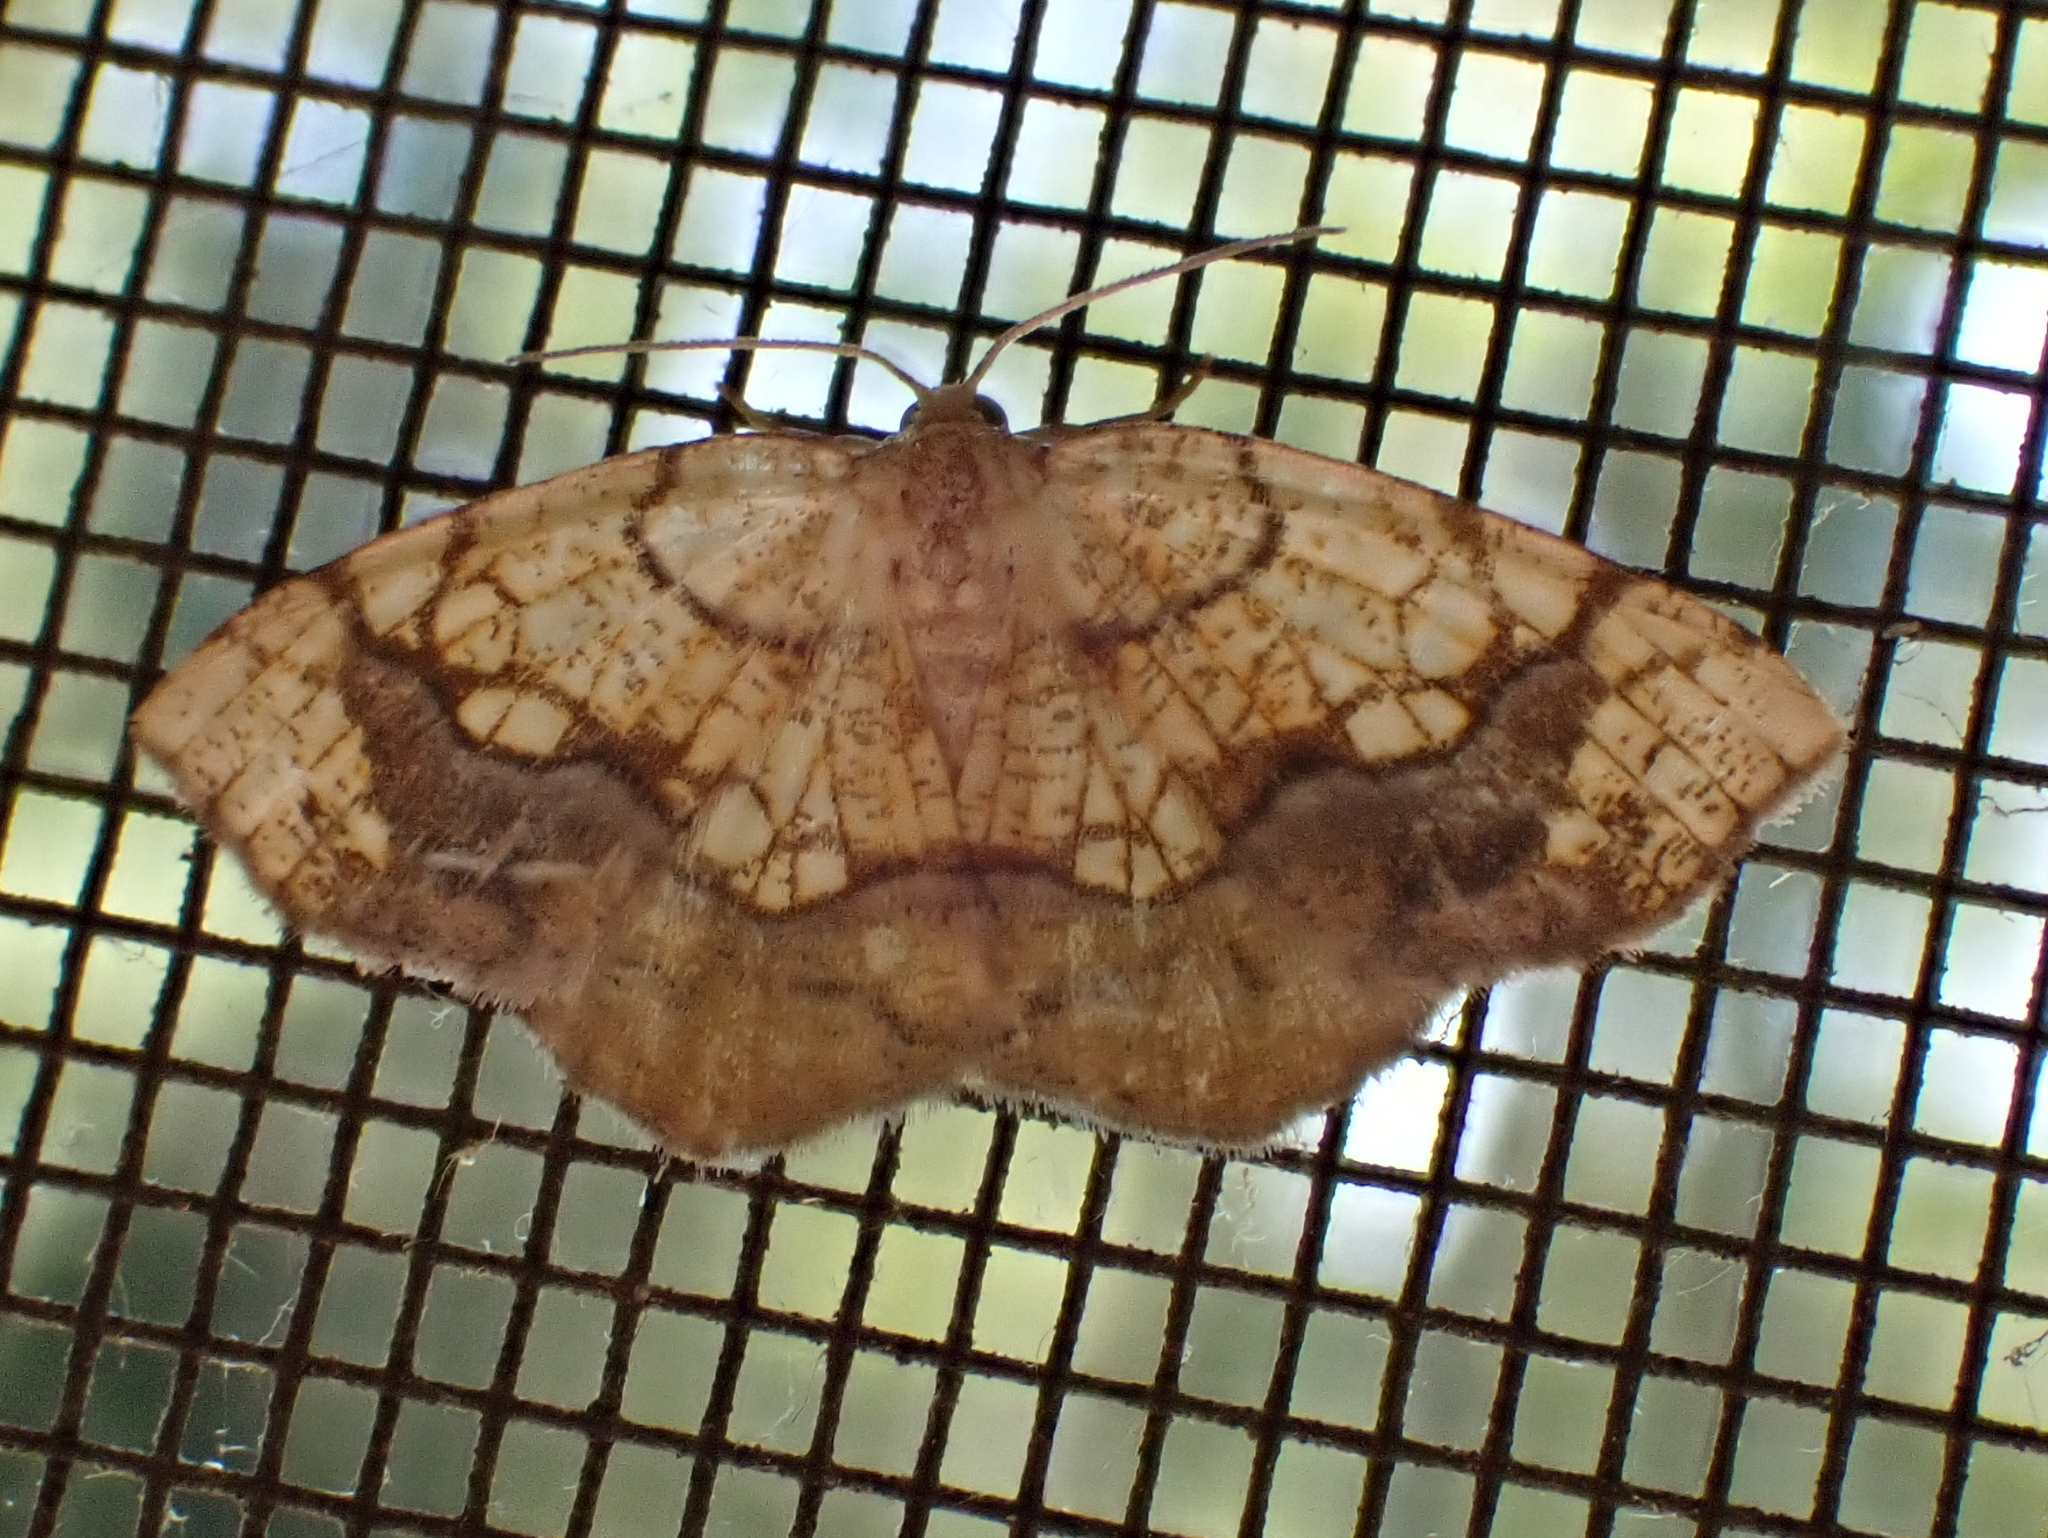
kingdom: Animalia
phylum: Arthropoda
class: Insecta
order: Lepidoptera
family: Geometridae
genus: Nematocampa
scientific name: Nematocampa resistaria
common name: Horned spanworm moth
